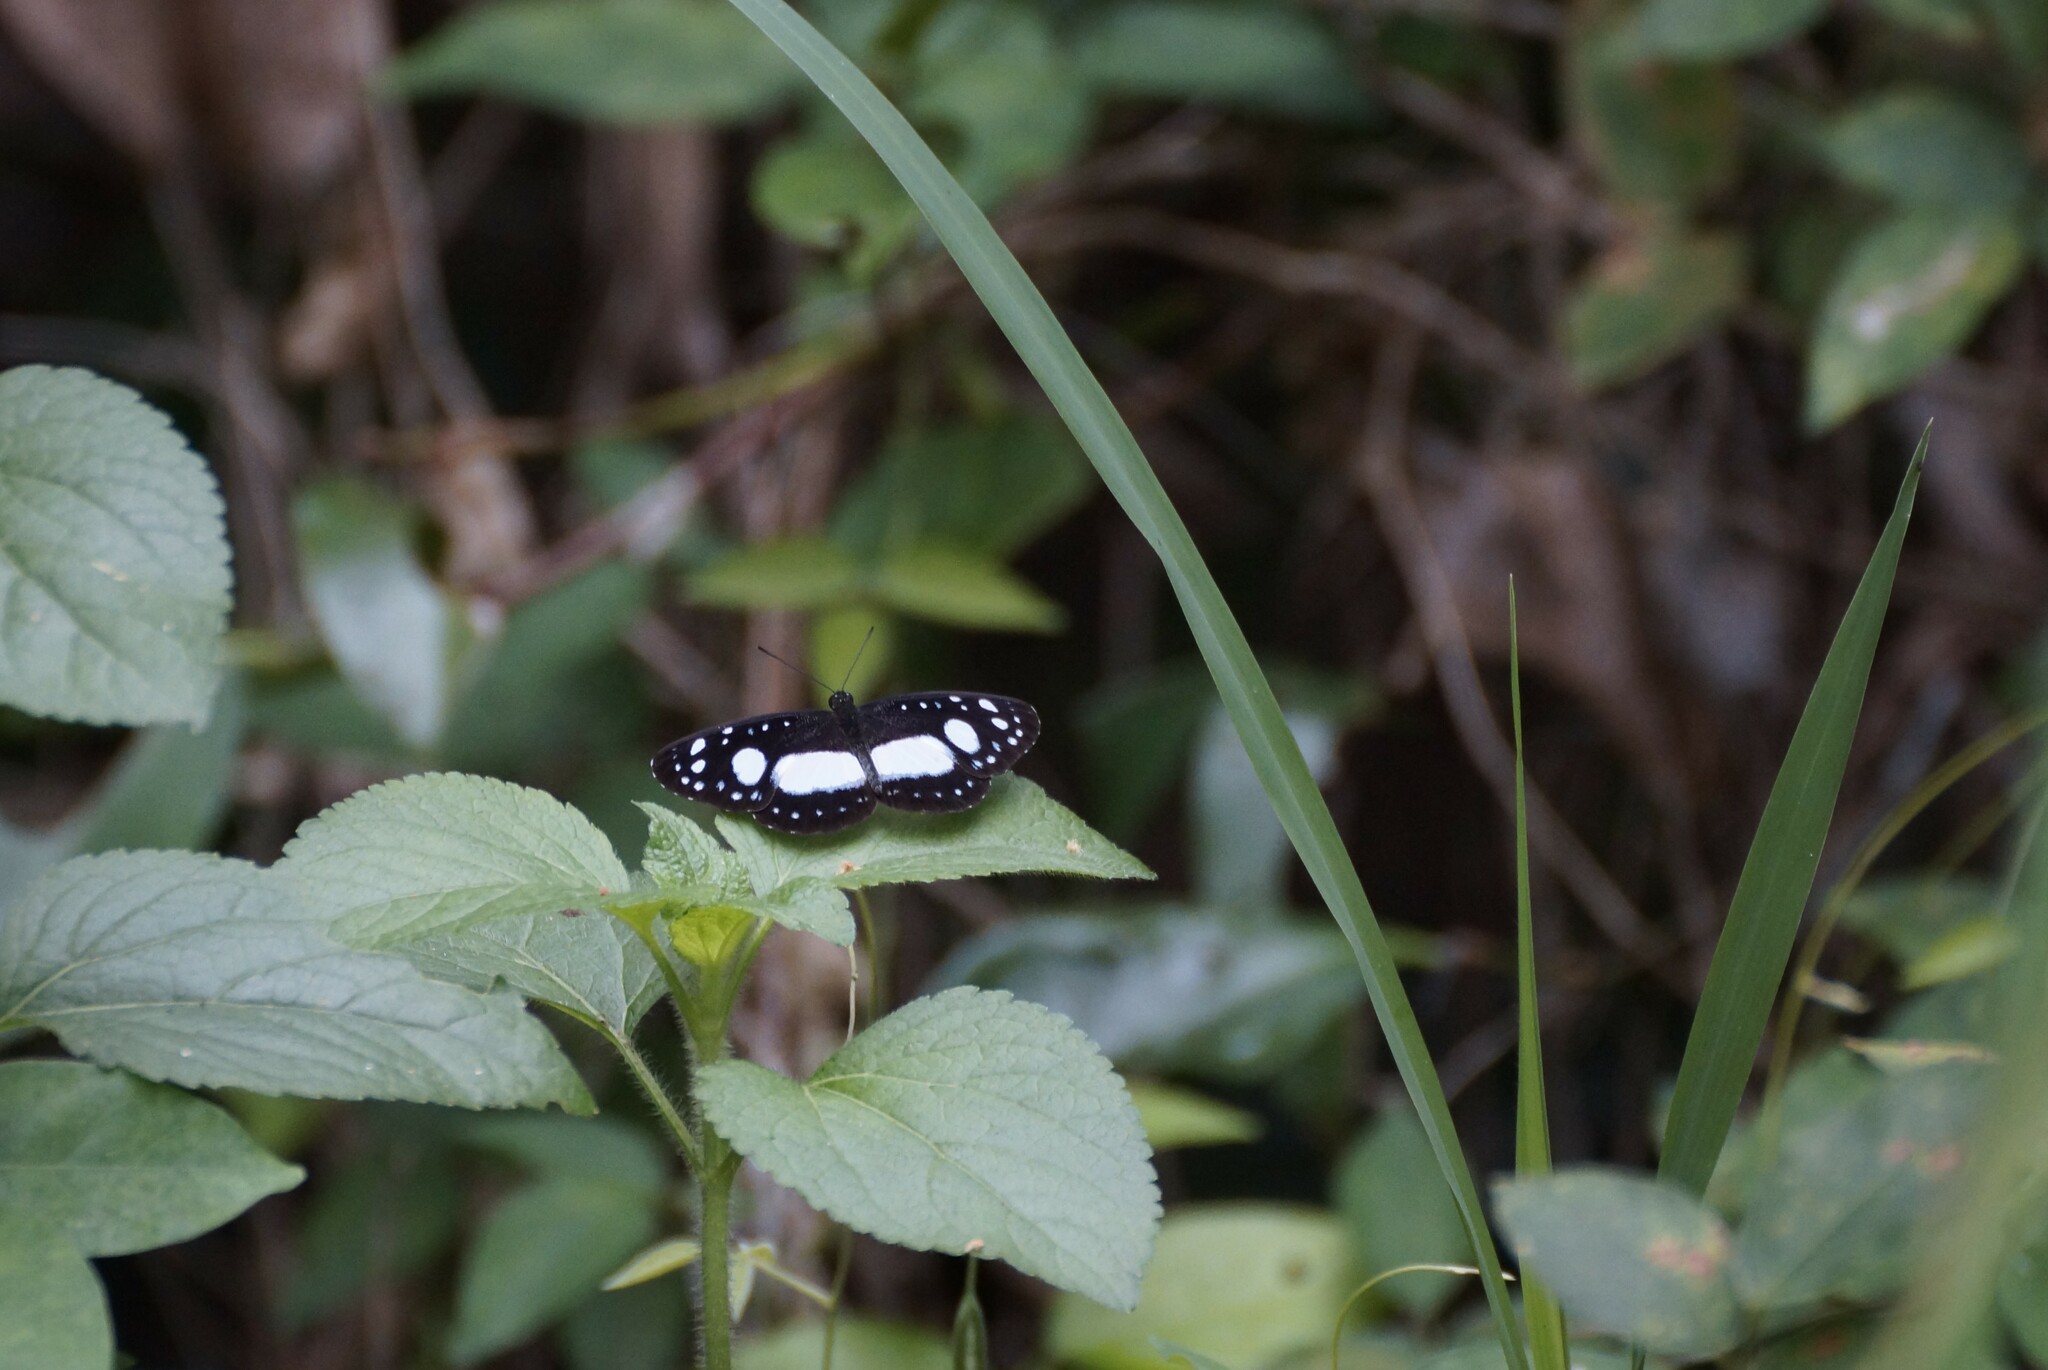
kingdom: Animalia
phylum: Arthropoda
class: Insecta
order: Lepidoptera
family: Nymphalidae
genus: Pantoporia
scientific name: Pantoporia venilia
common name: Cape york aeroplane
